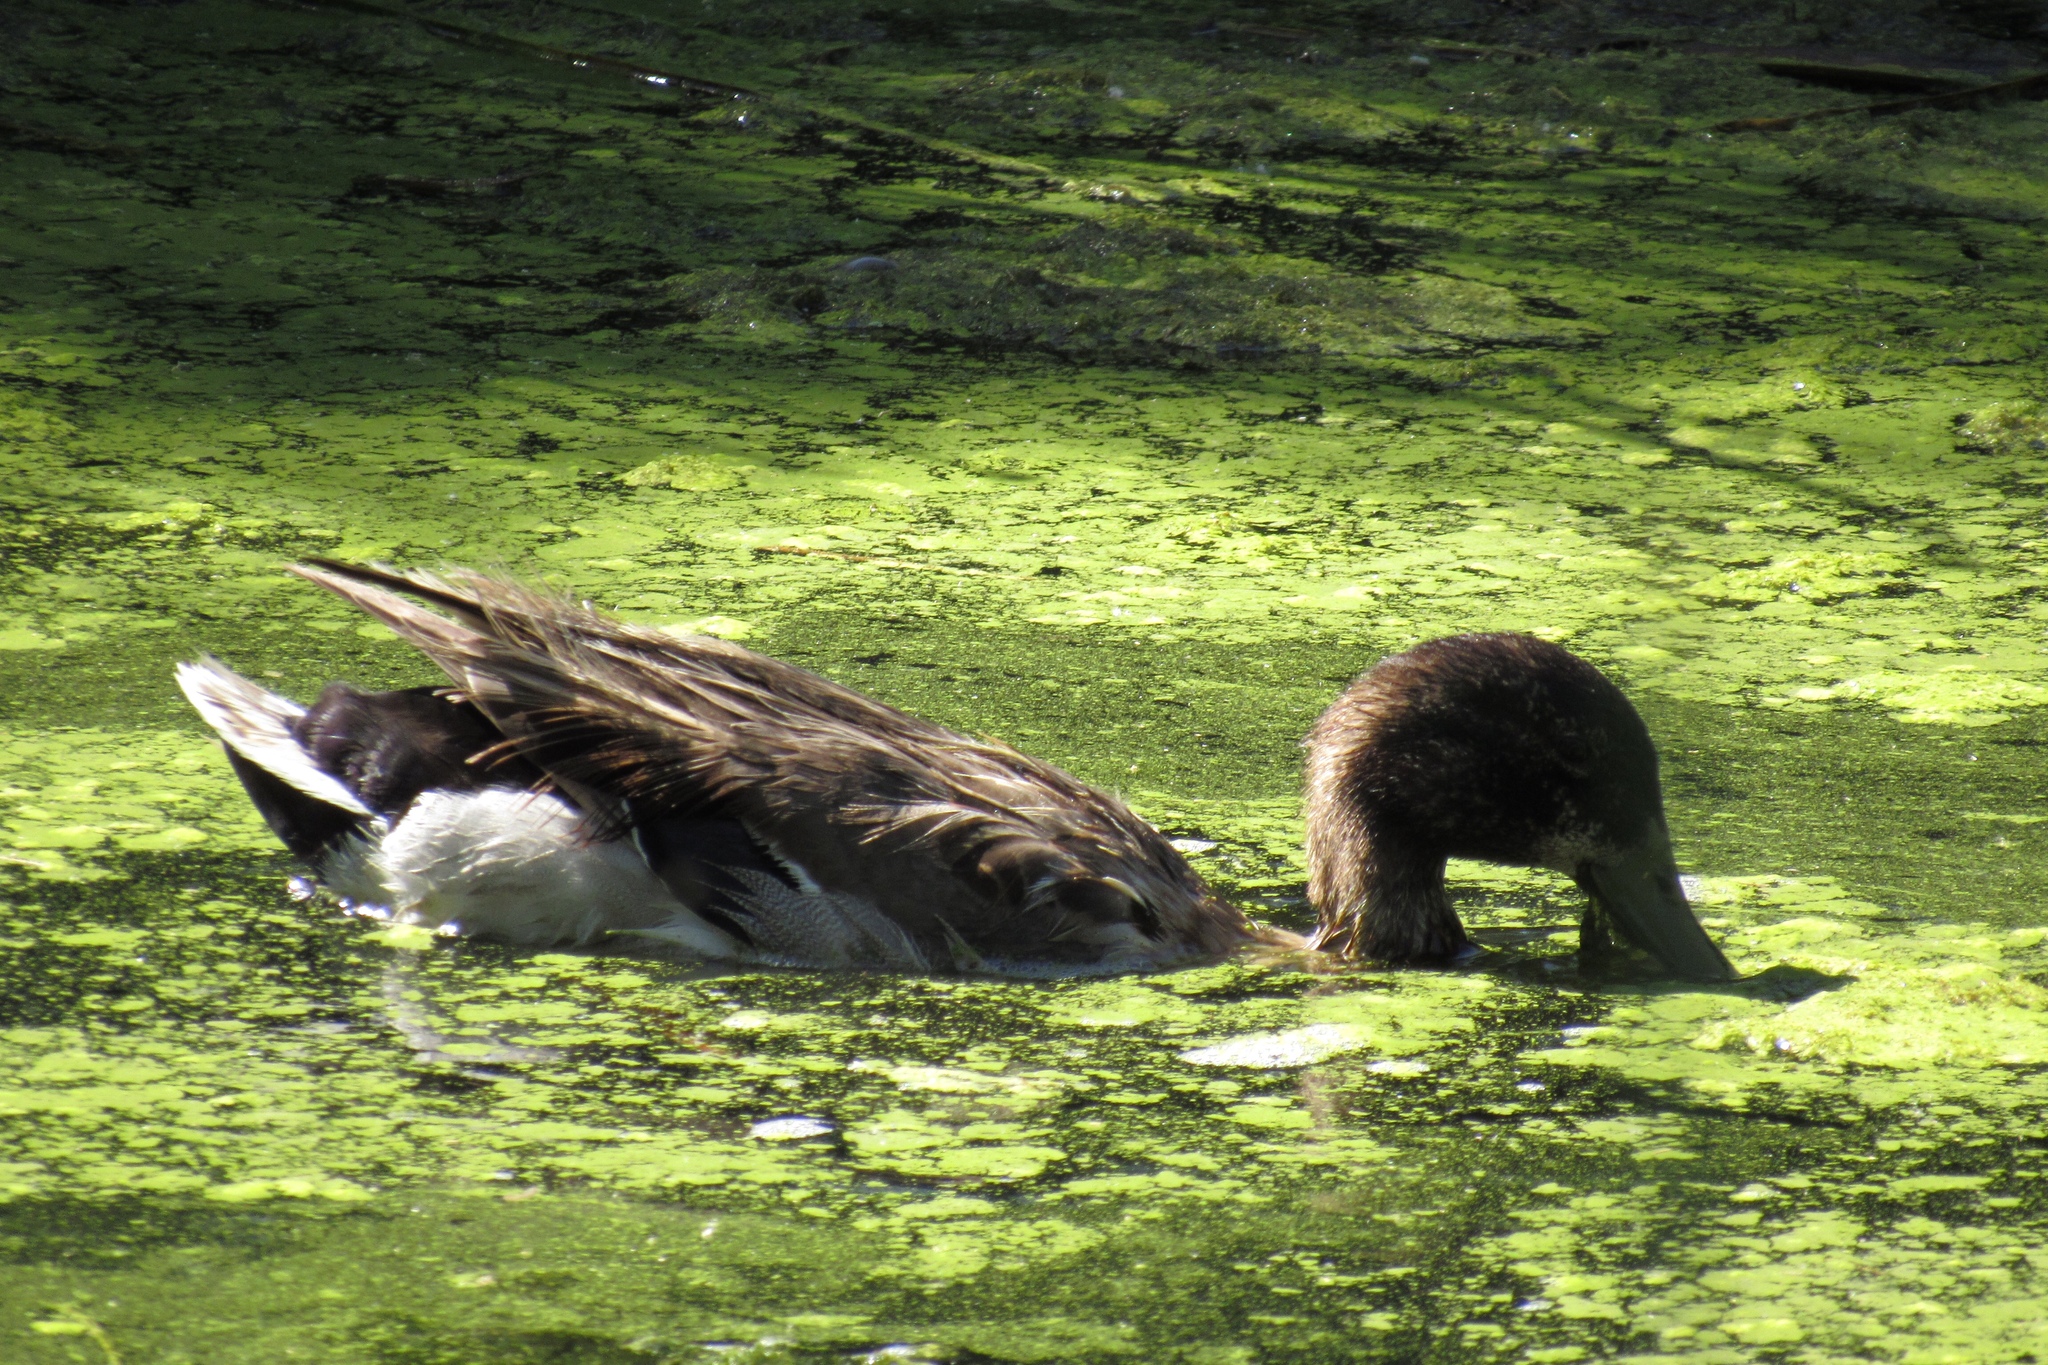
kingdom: Animalia
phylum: Chordata
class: Aves
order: Anseriformes
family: Anatidae
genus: Anas
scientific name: Anas platyrhynchos
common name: Mallard
